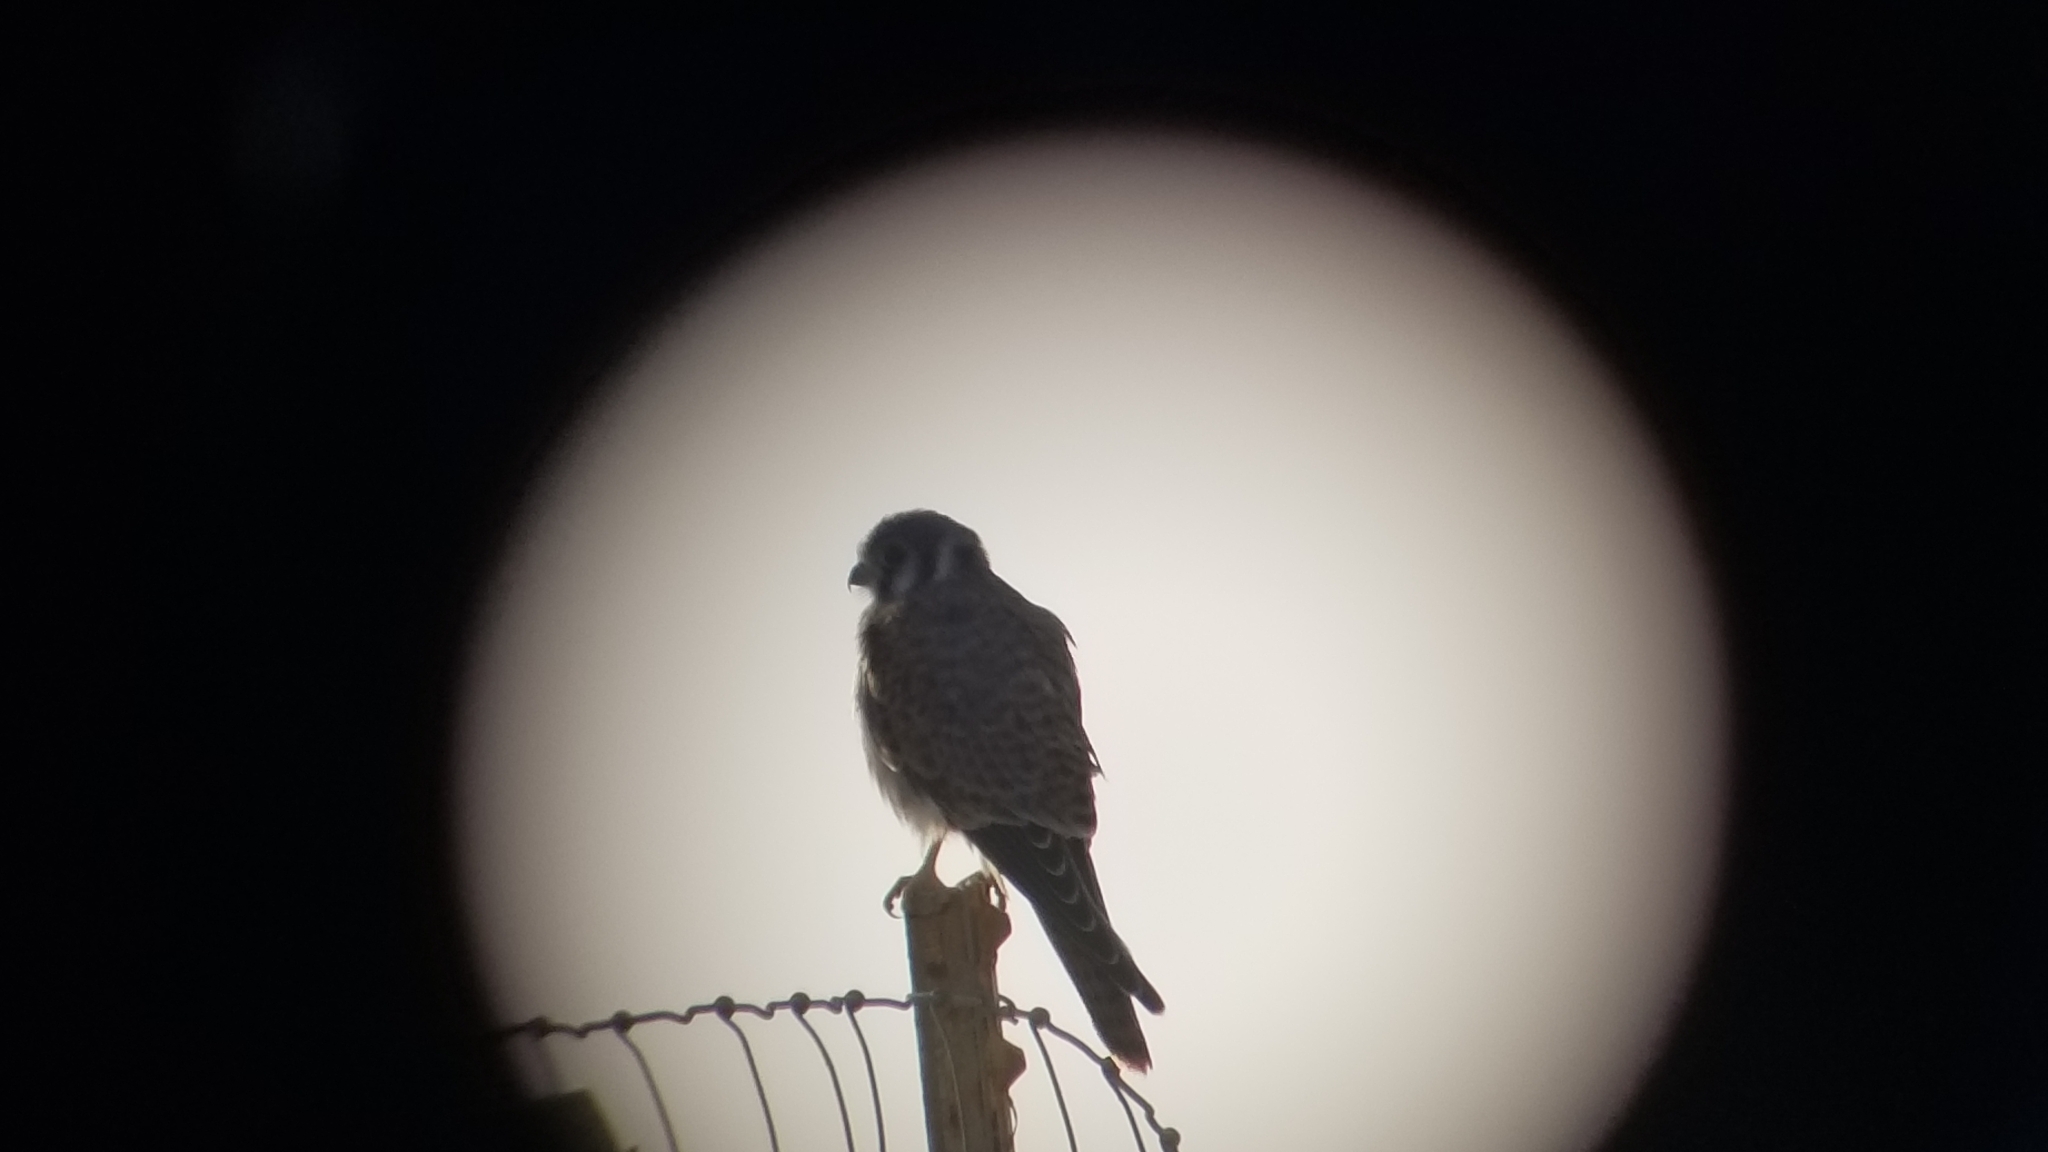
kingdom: Animalia
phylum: Chordata
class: Aves
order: Falconiformes
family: Falconidae
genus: Falco
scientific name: Falco sparverius
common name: American kestrel
